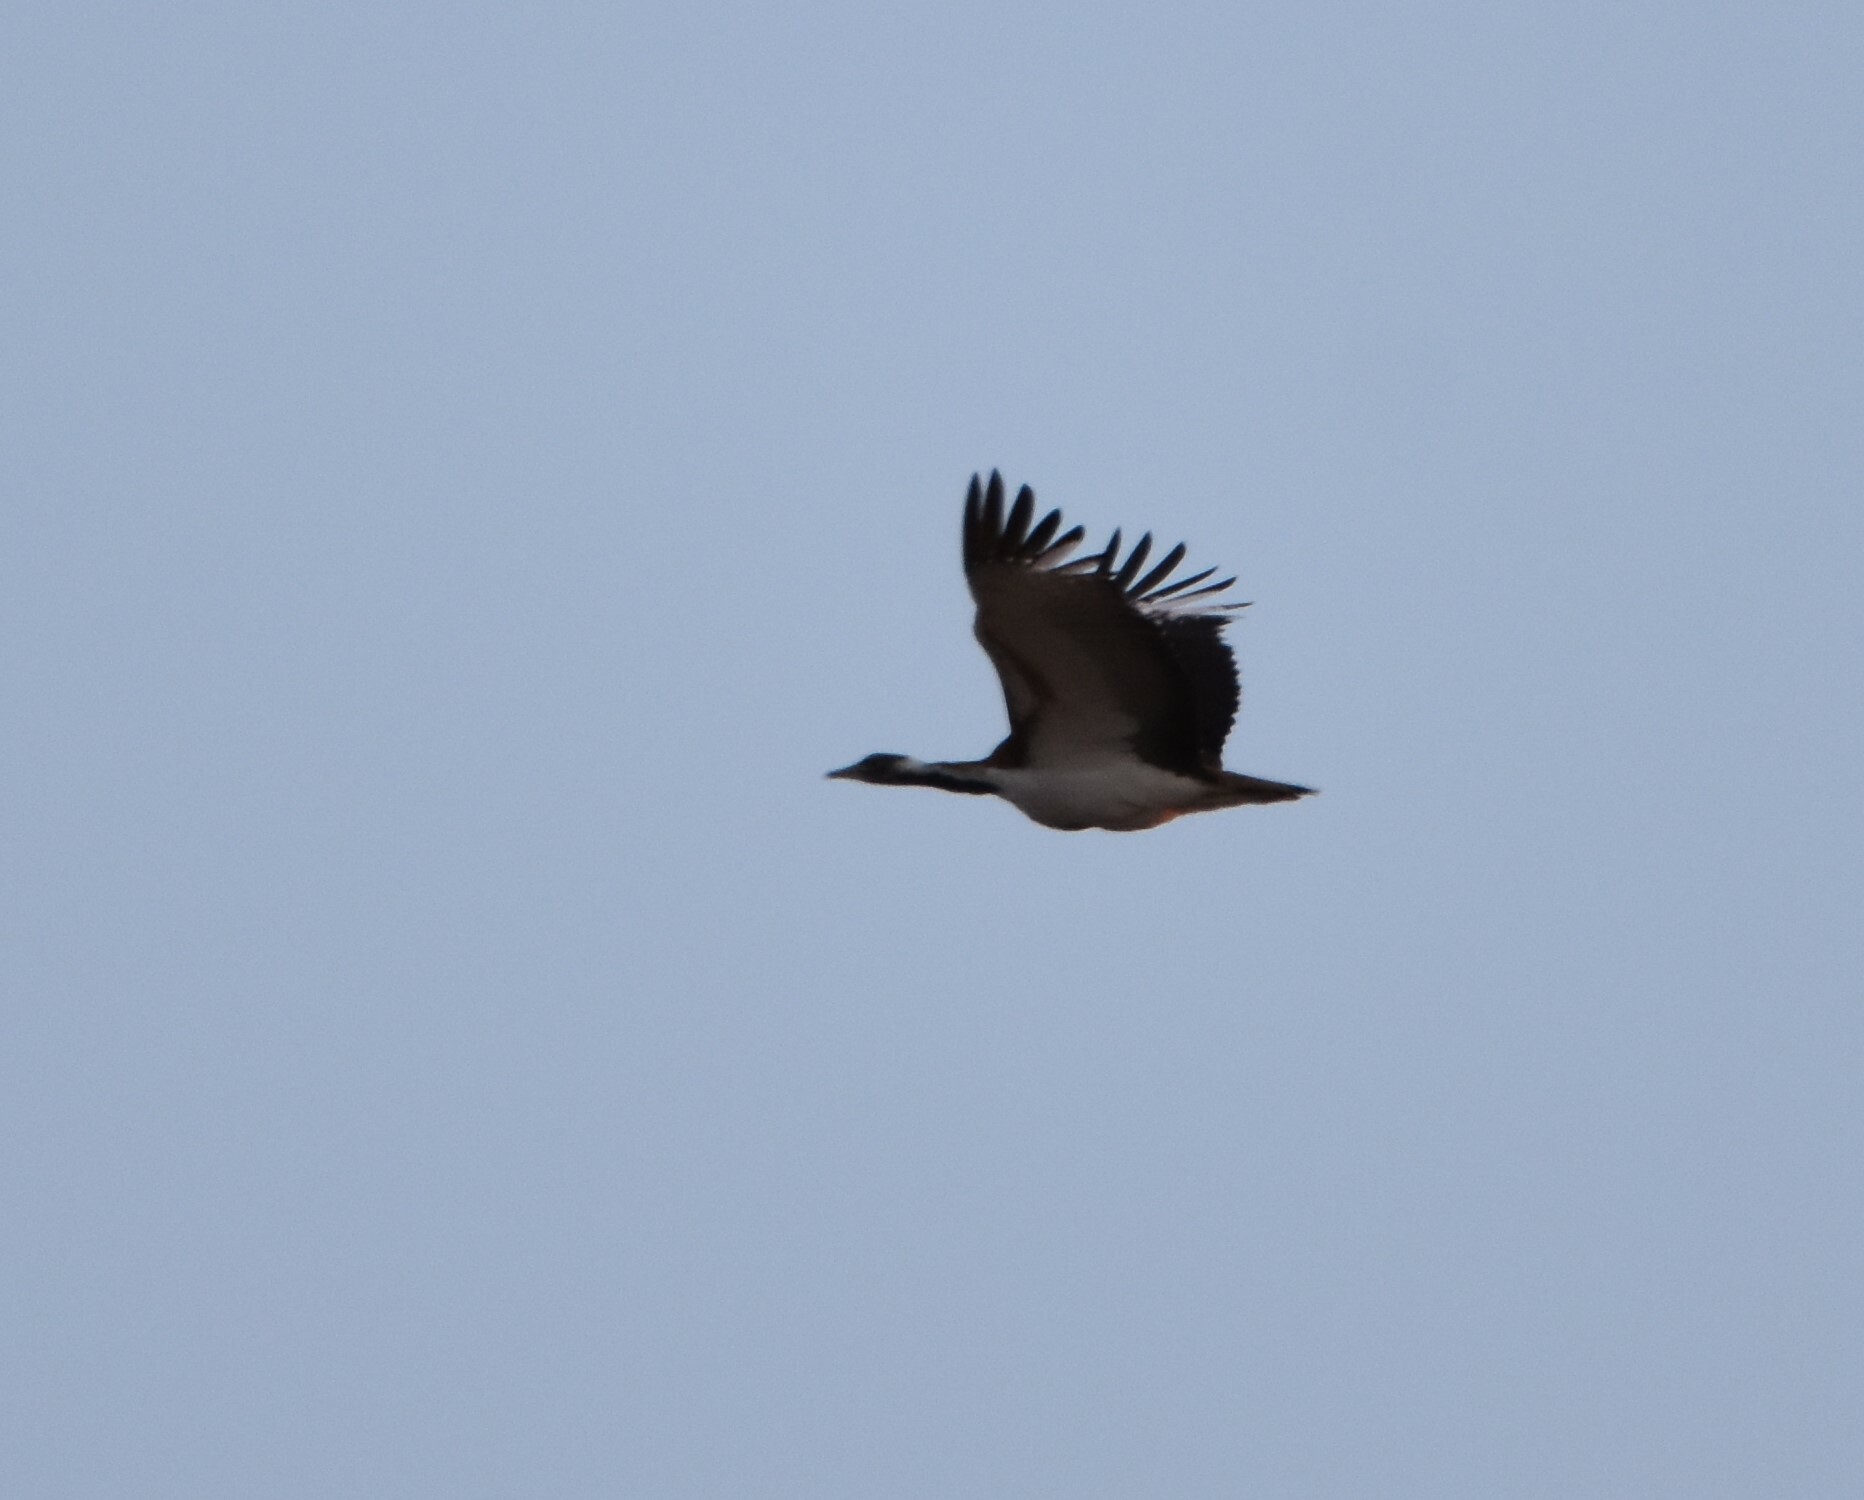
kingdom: Animalia
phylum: Chordata
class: Aves
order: Otidiformes
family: Otididae
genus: Neotis
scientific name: Neotis ludwigii
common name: Ludwig's bustard
